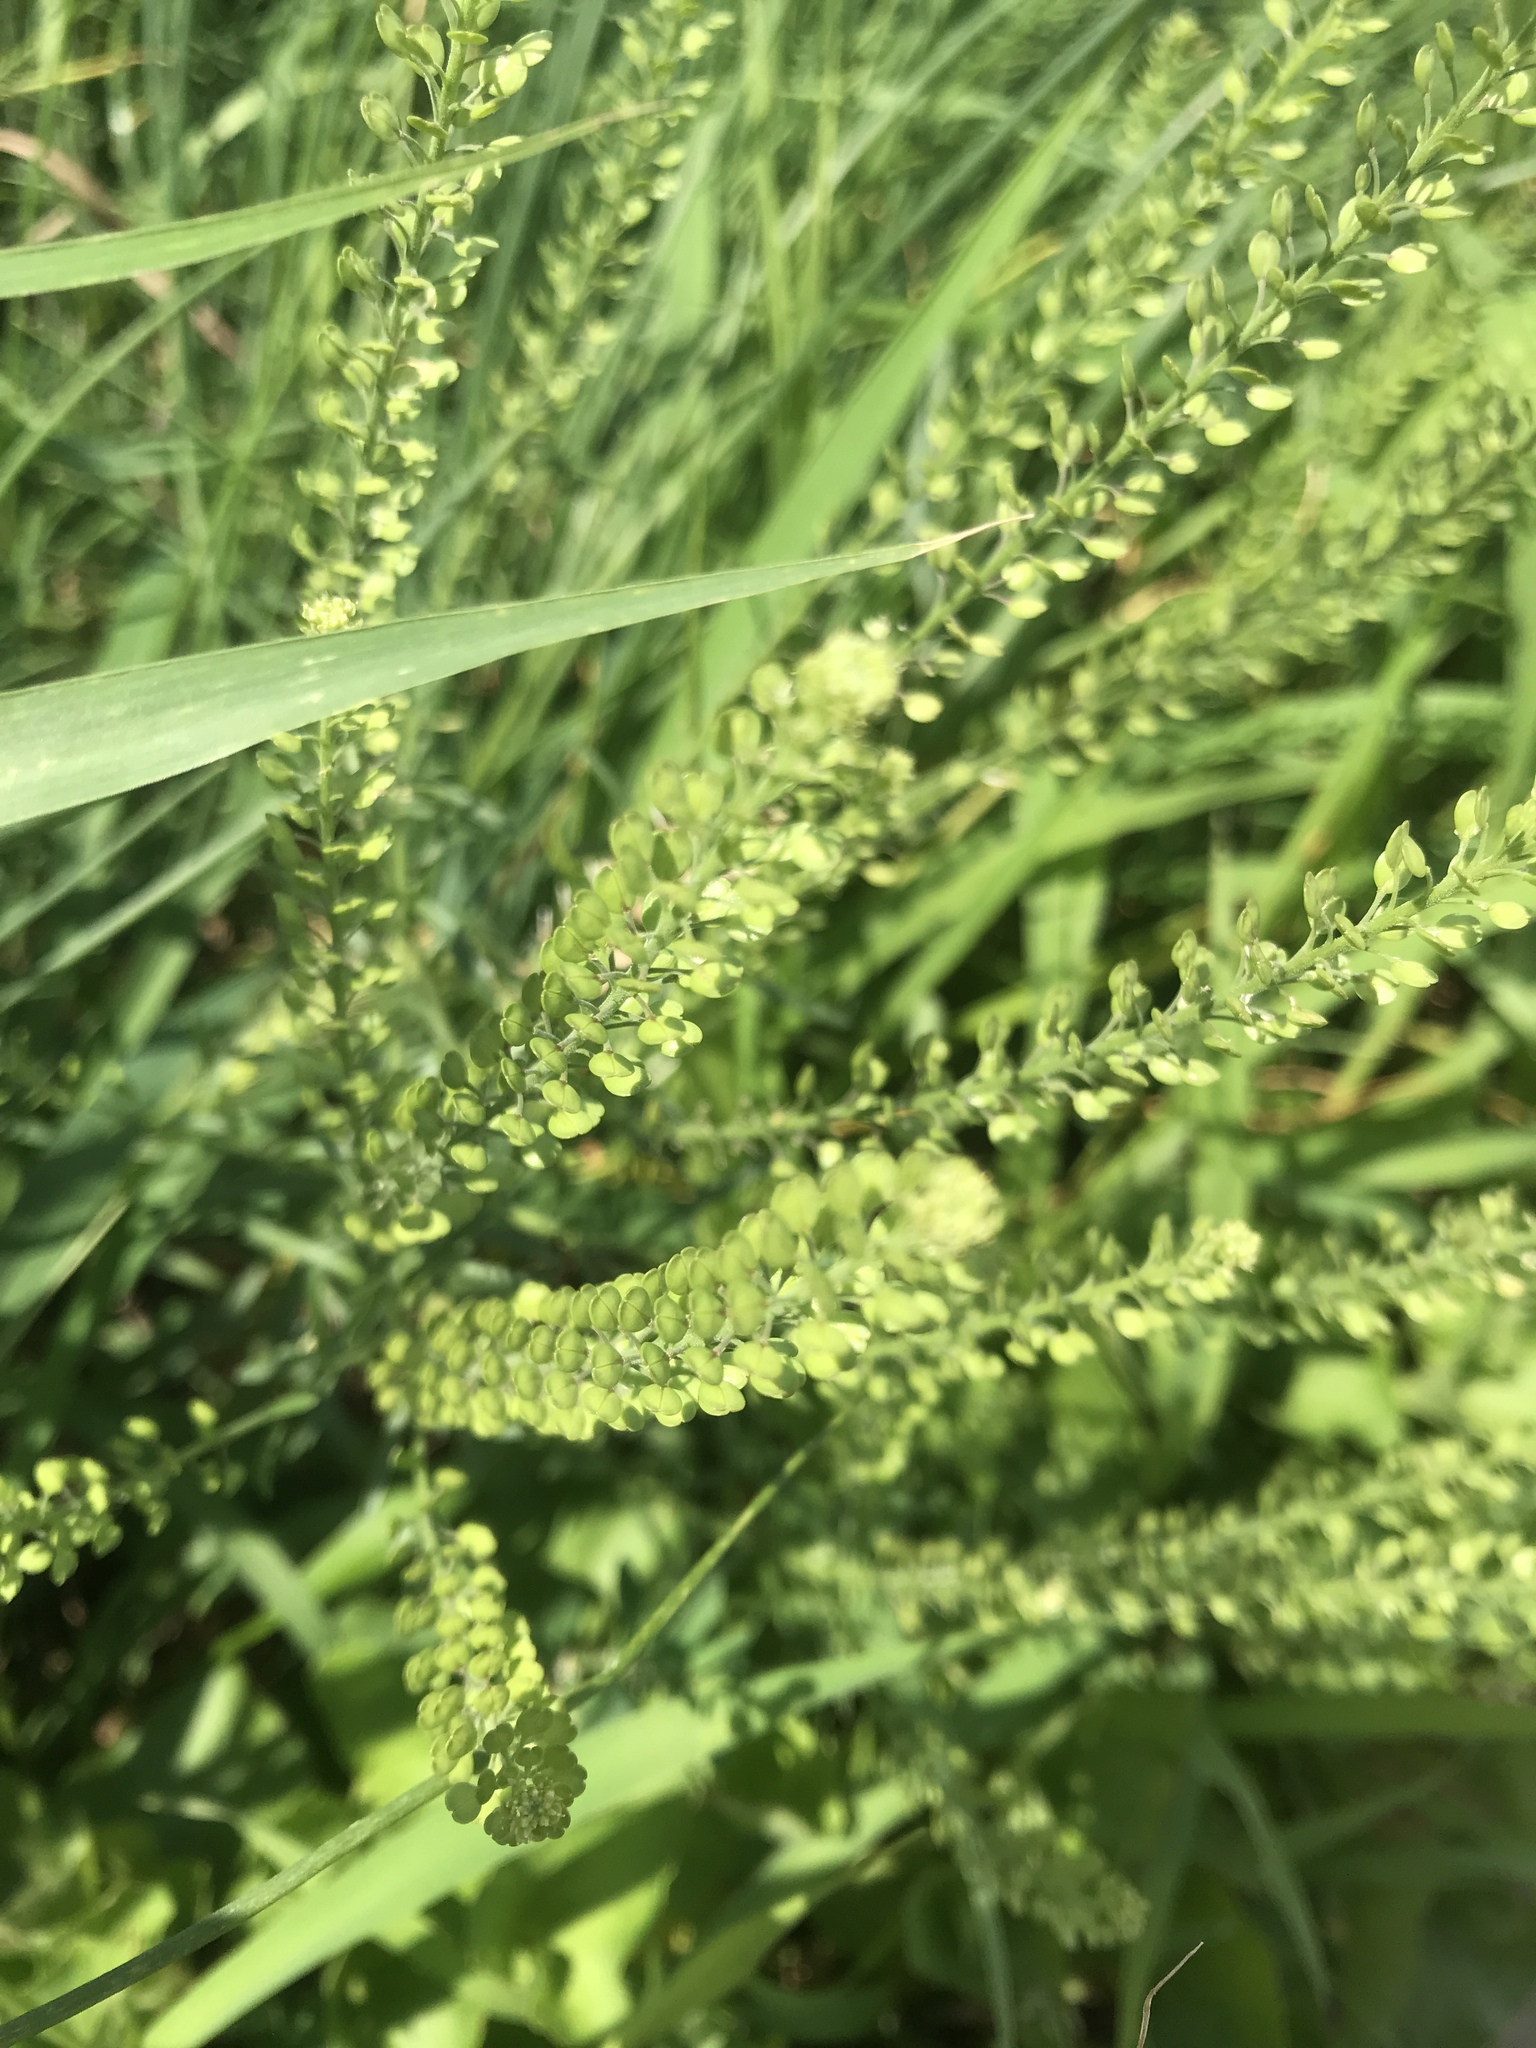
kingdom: Plantae
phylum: Tracheophyta
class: Magnoliopsida
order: Brassicales
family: Brassicaceae
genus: Lepidium
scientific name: Lepidium densiflorum
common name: Miner's pepperwort
